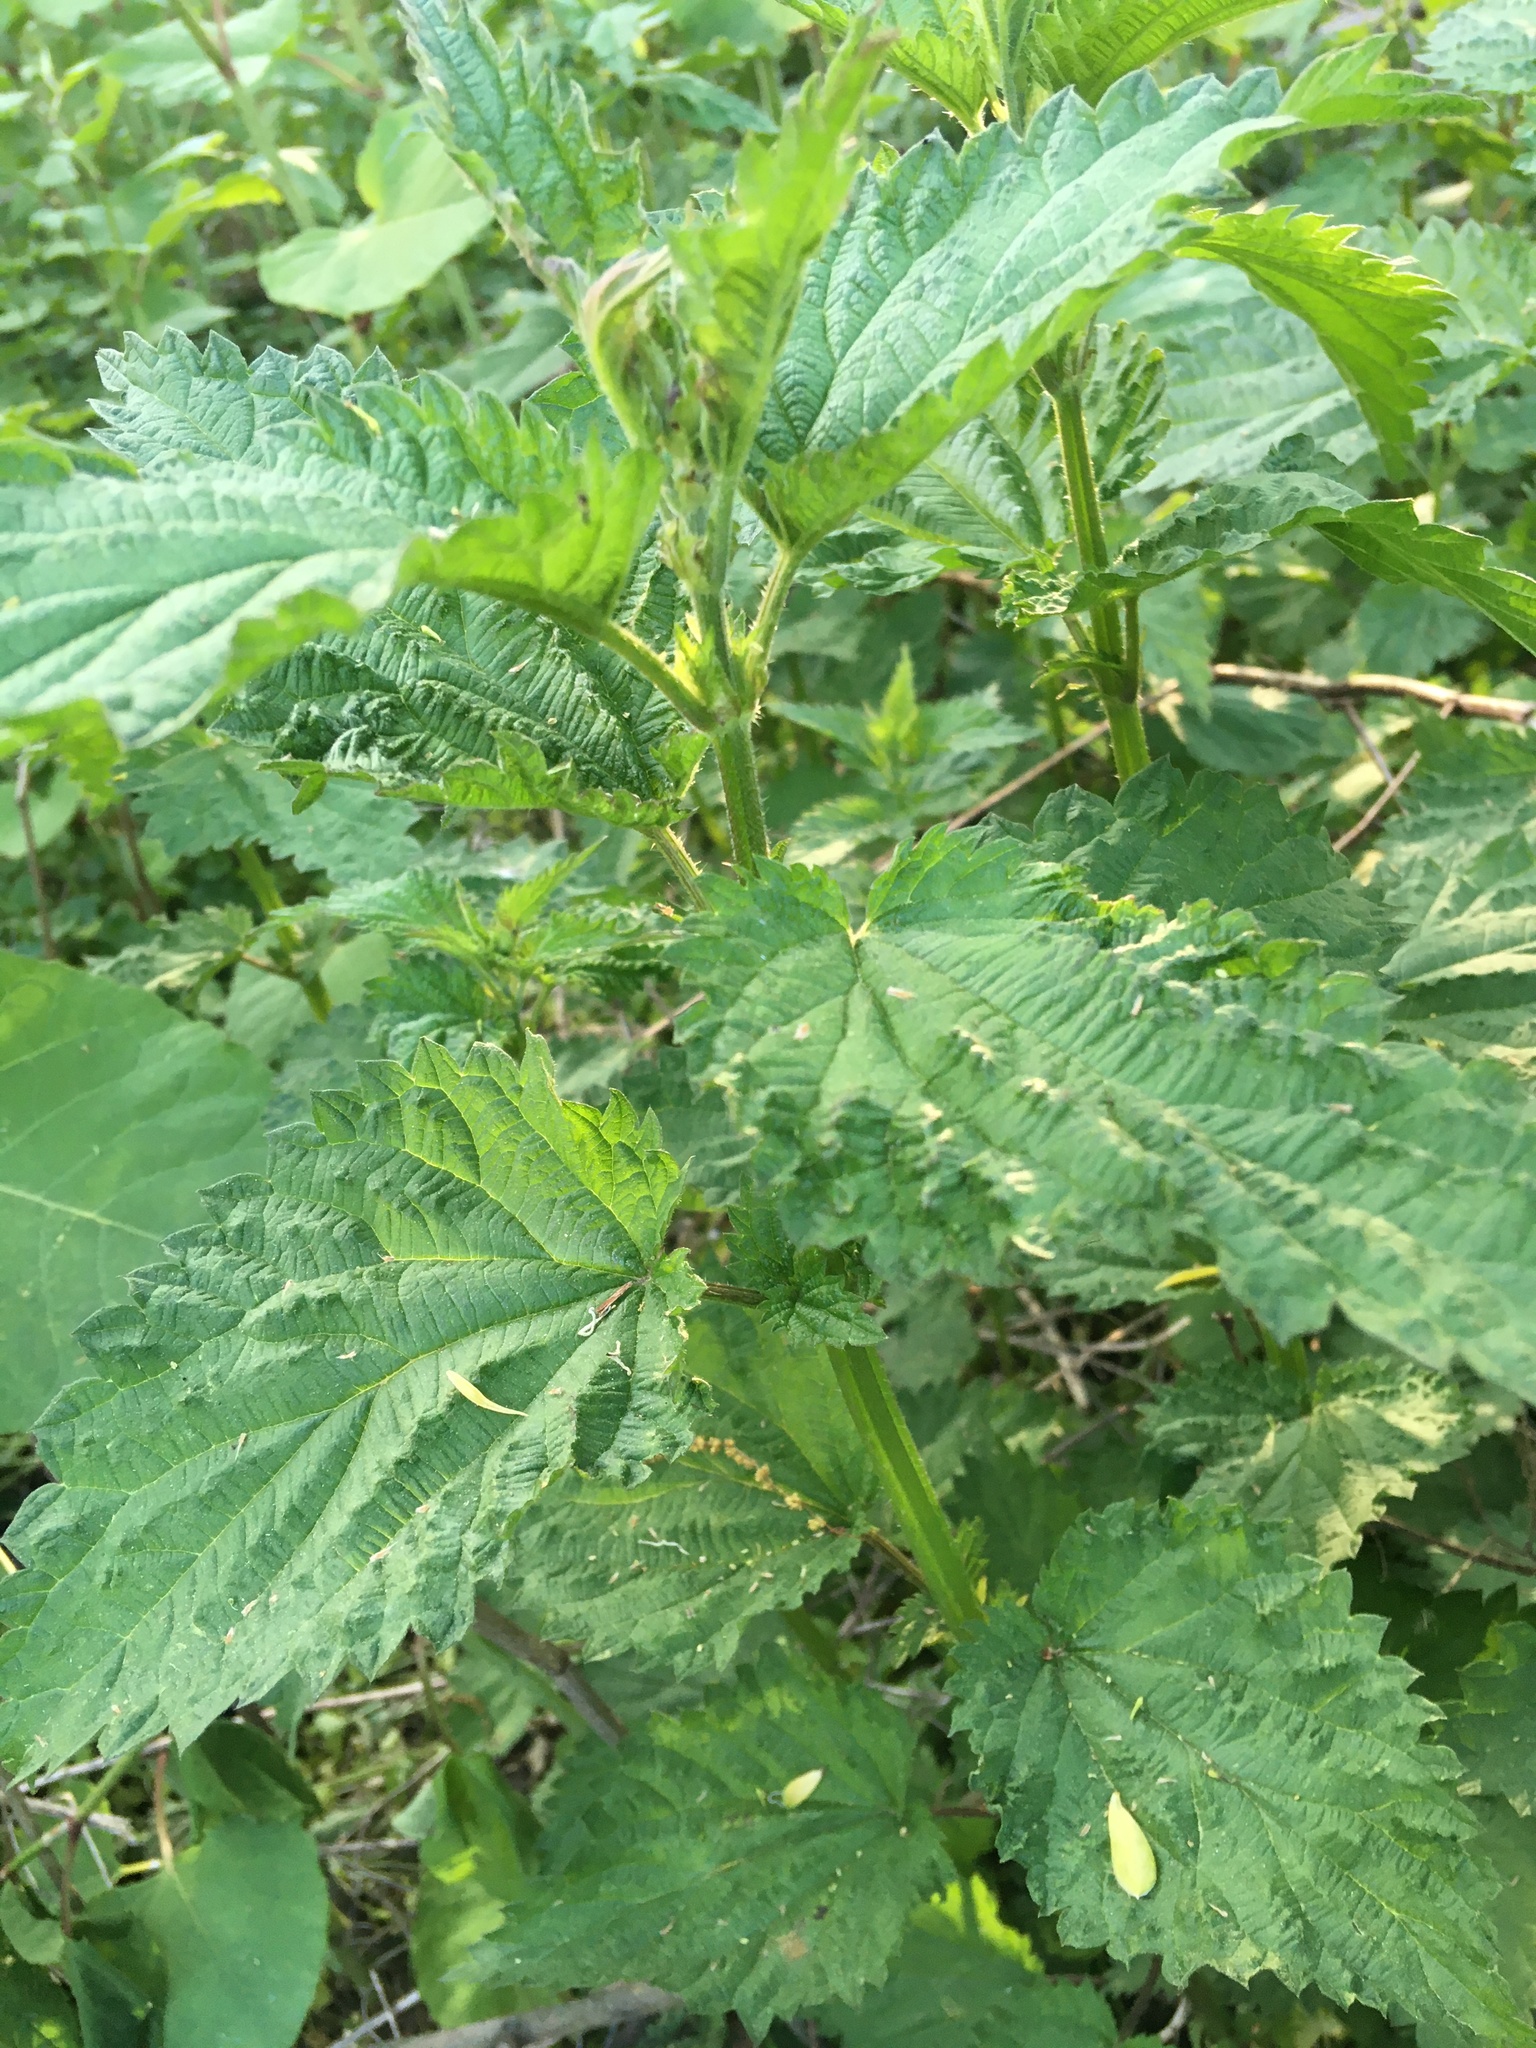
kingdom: Plantae
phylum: Tracheophyta
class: Magnoliopsida
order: Rosales
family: Urticaceae
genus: Urtica
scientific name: Urtica dioica
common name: Common nettle
